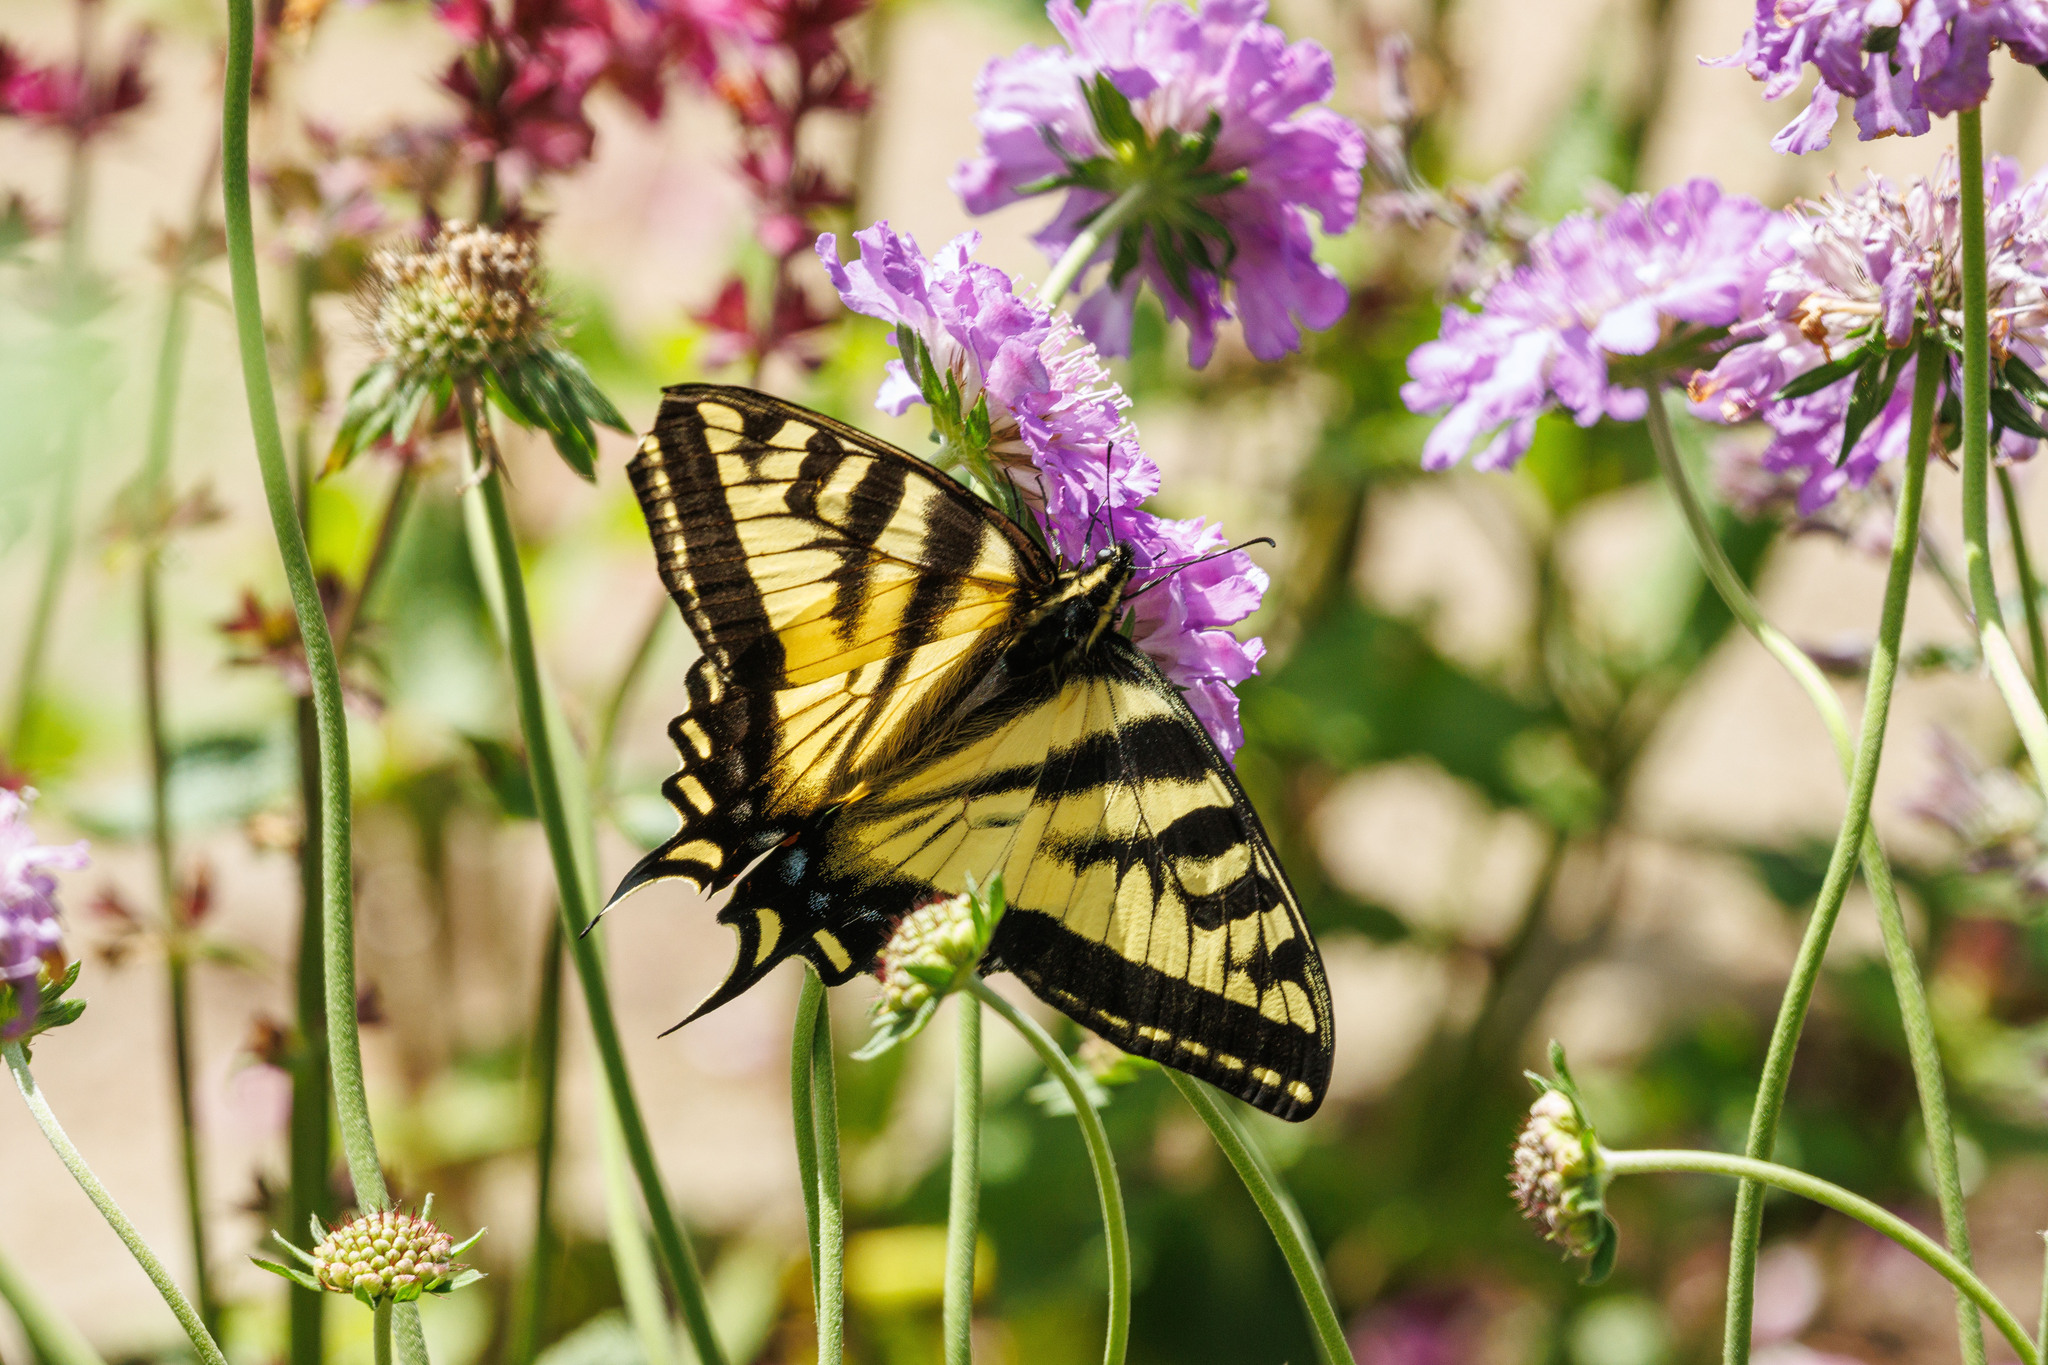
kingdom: Animalia
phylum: Arthropoda
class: Insecta
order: Lepidoptera
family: Papilionidae
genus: Papilio
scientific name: Papilio rutulus
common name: Western tiger swallowtail
